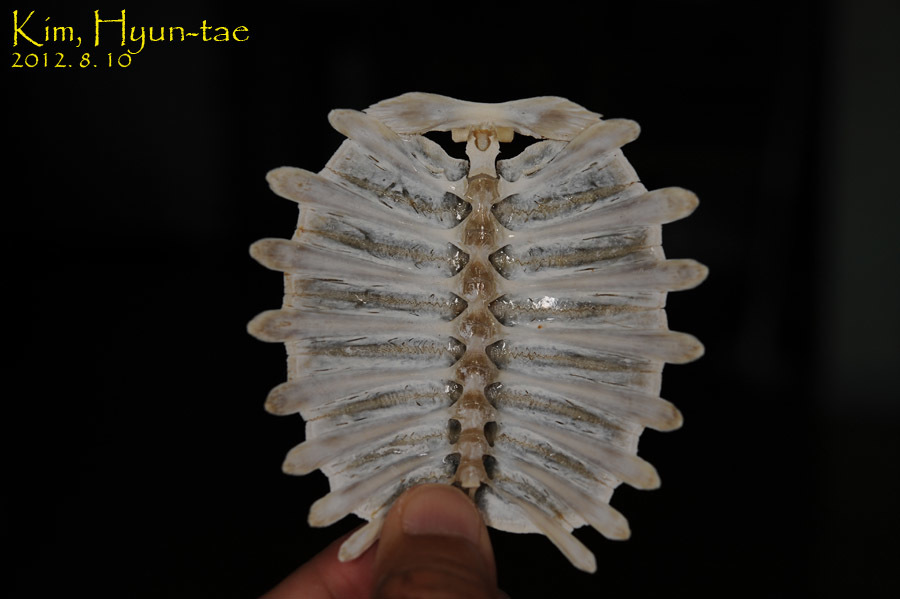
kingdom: Animalia
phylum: Chordata
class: Testudines
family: Trionychidae
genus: Pelodiscus
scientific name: Pelodiscus maackii
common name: Northern chinese softshell turtle
